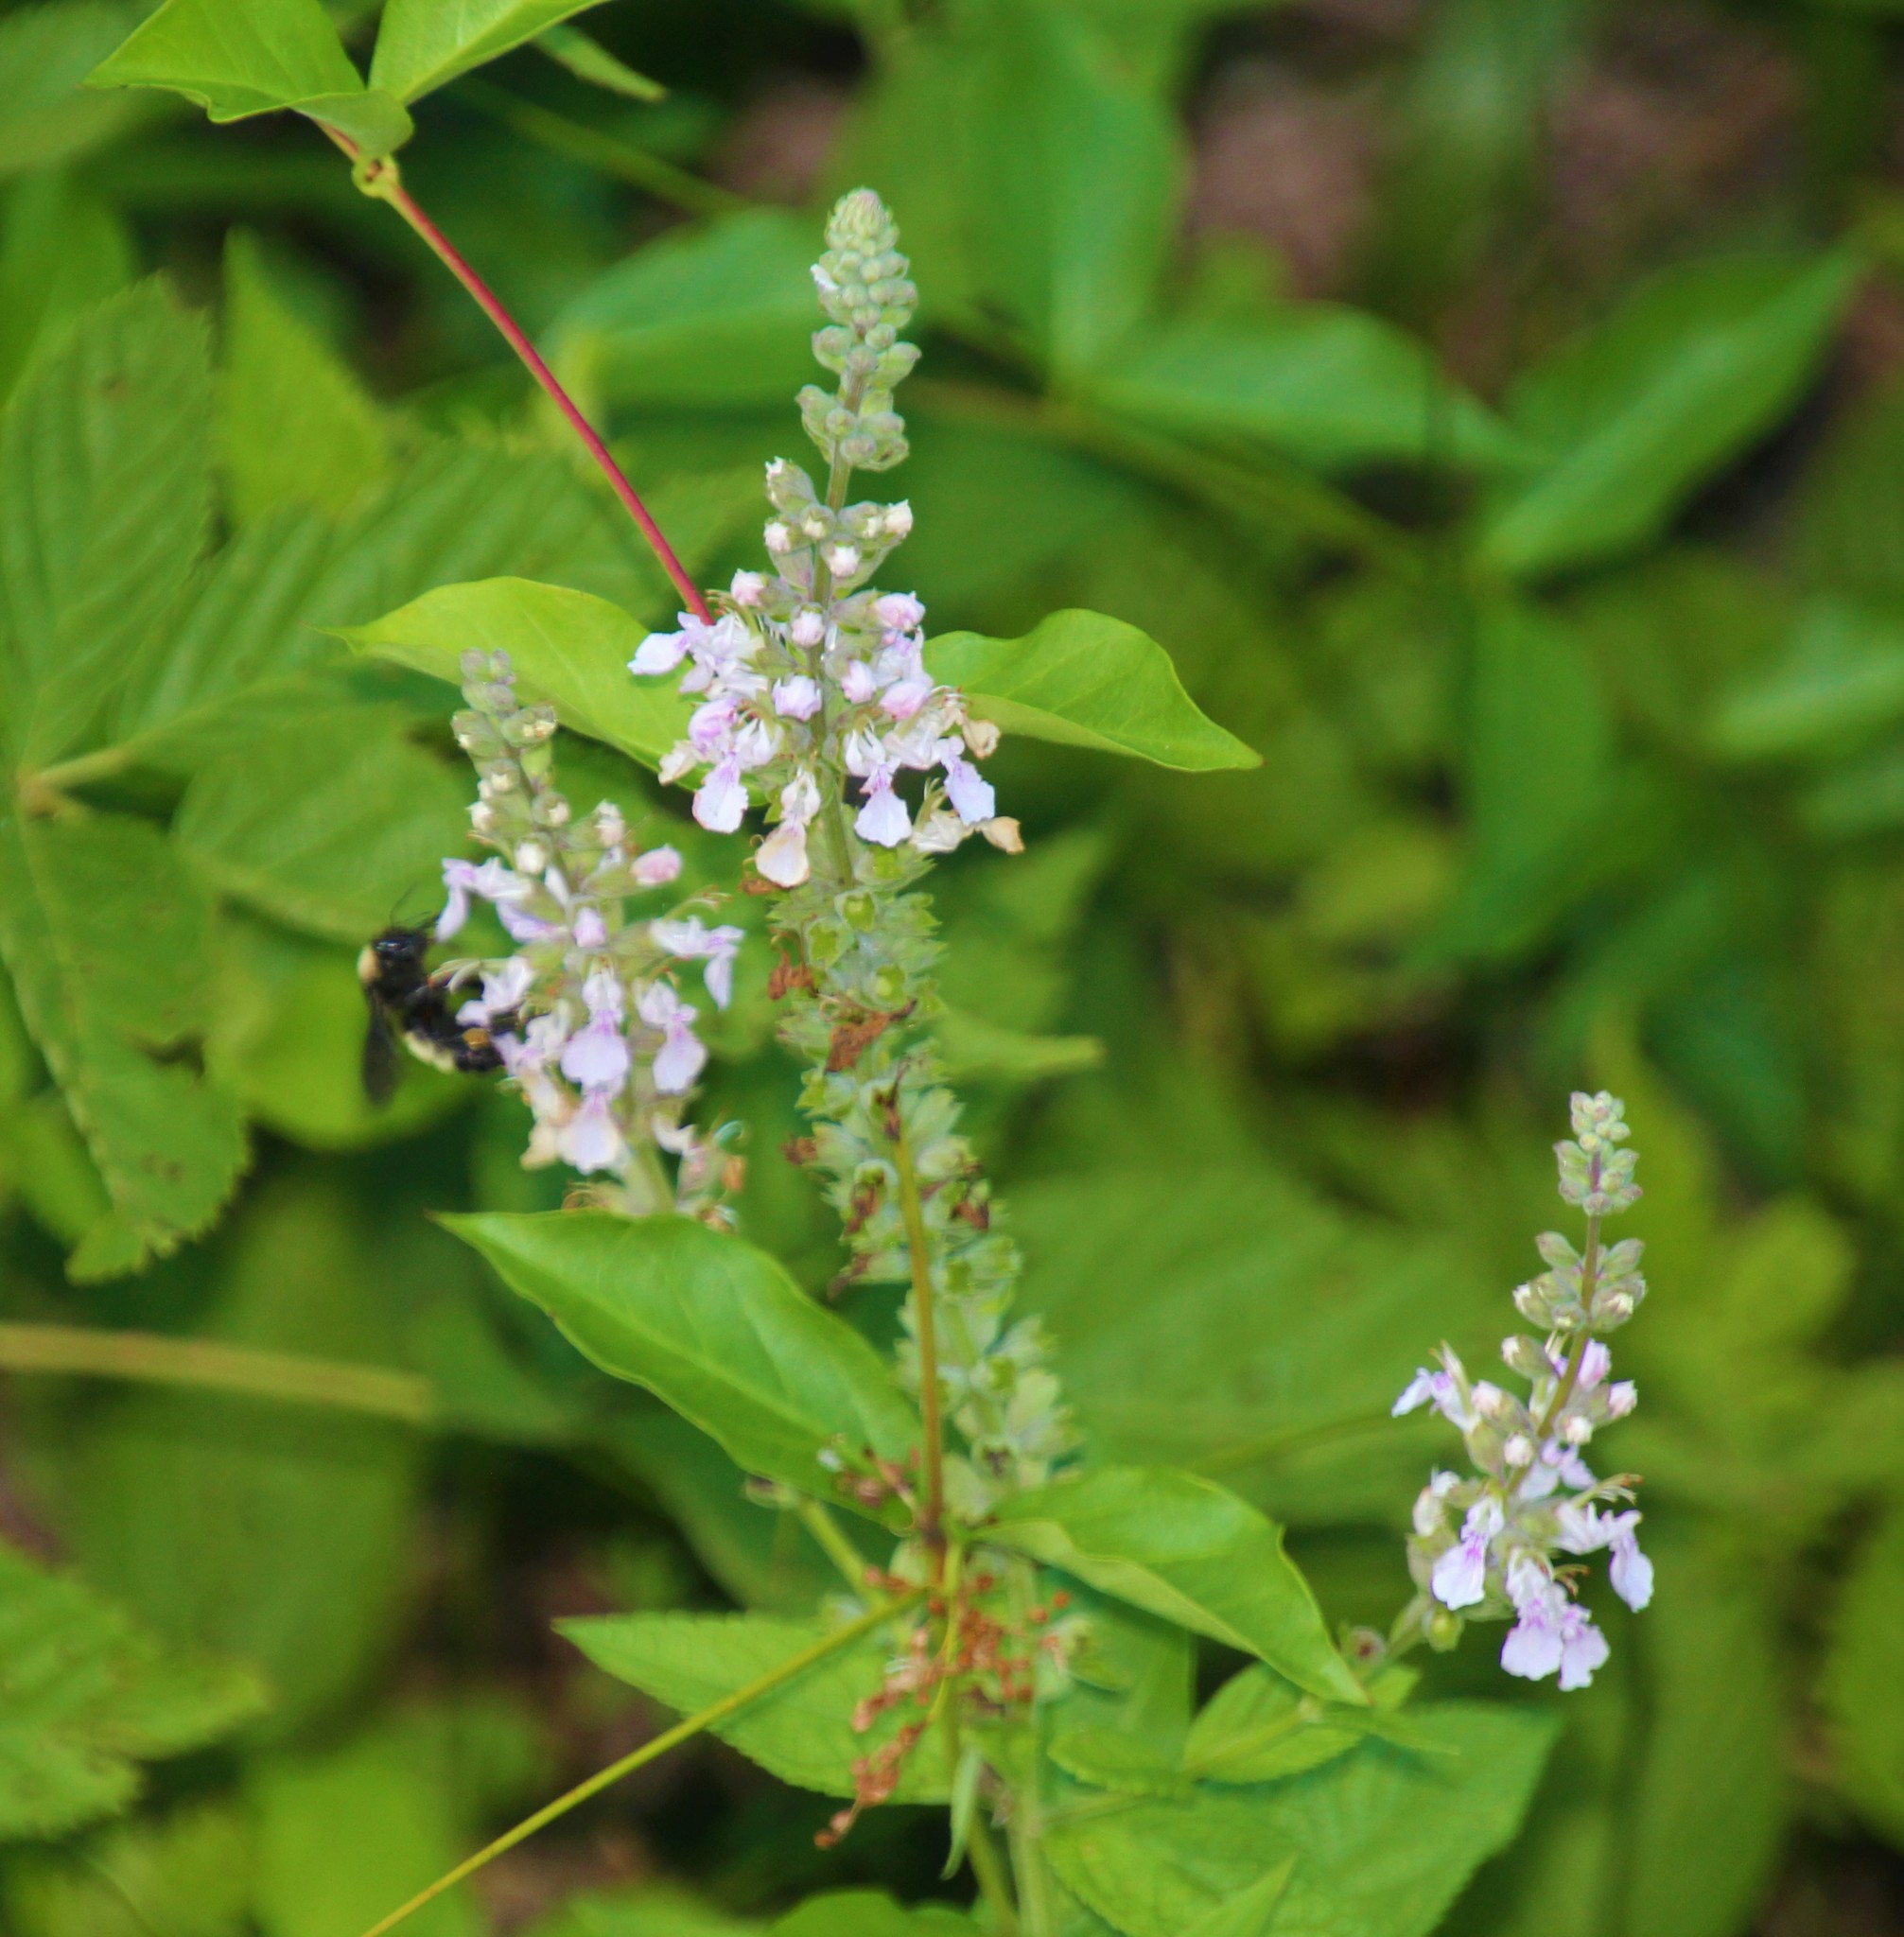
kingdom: Plantae
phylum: Tracheophyta
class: Magnoliopsida
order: Lamiales
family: Lamiaceae
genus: Teucrium
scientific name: Teucrium canadense
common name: American germander
